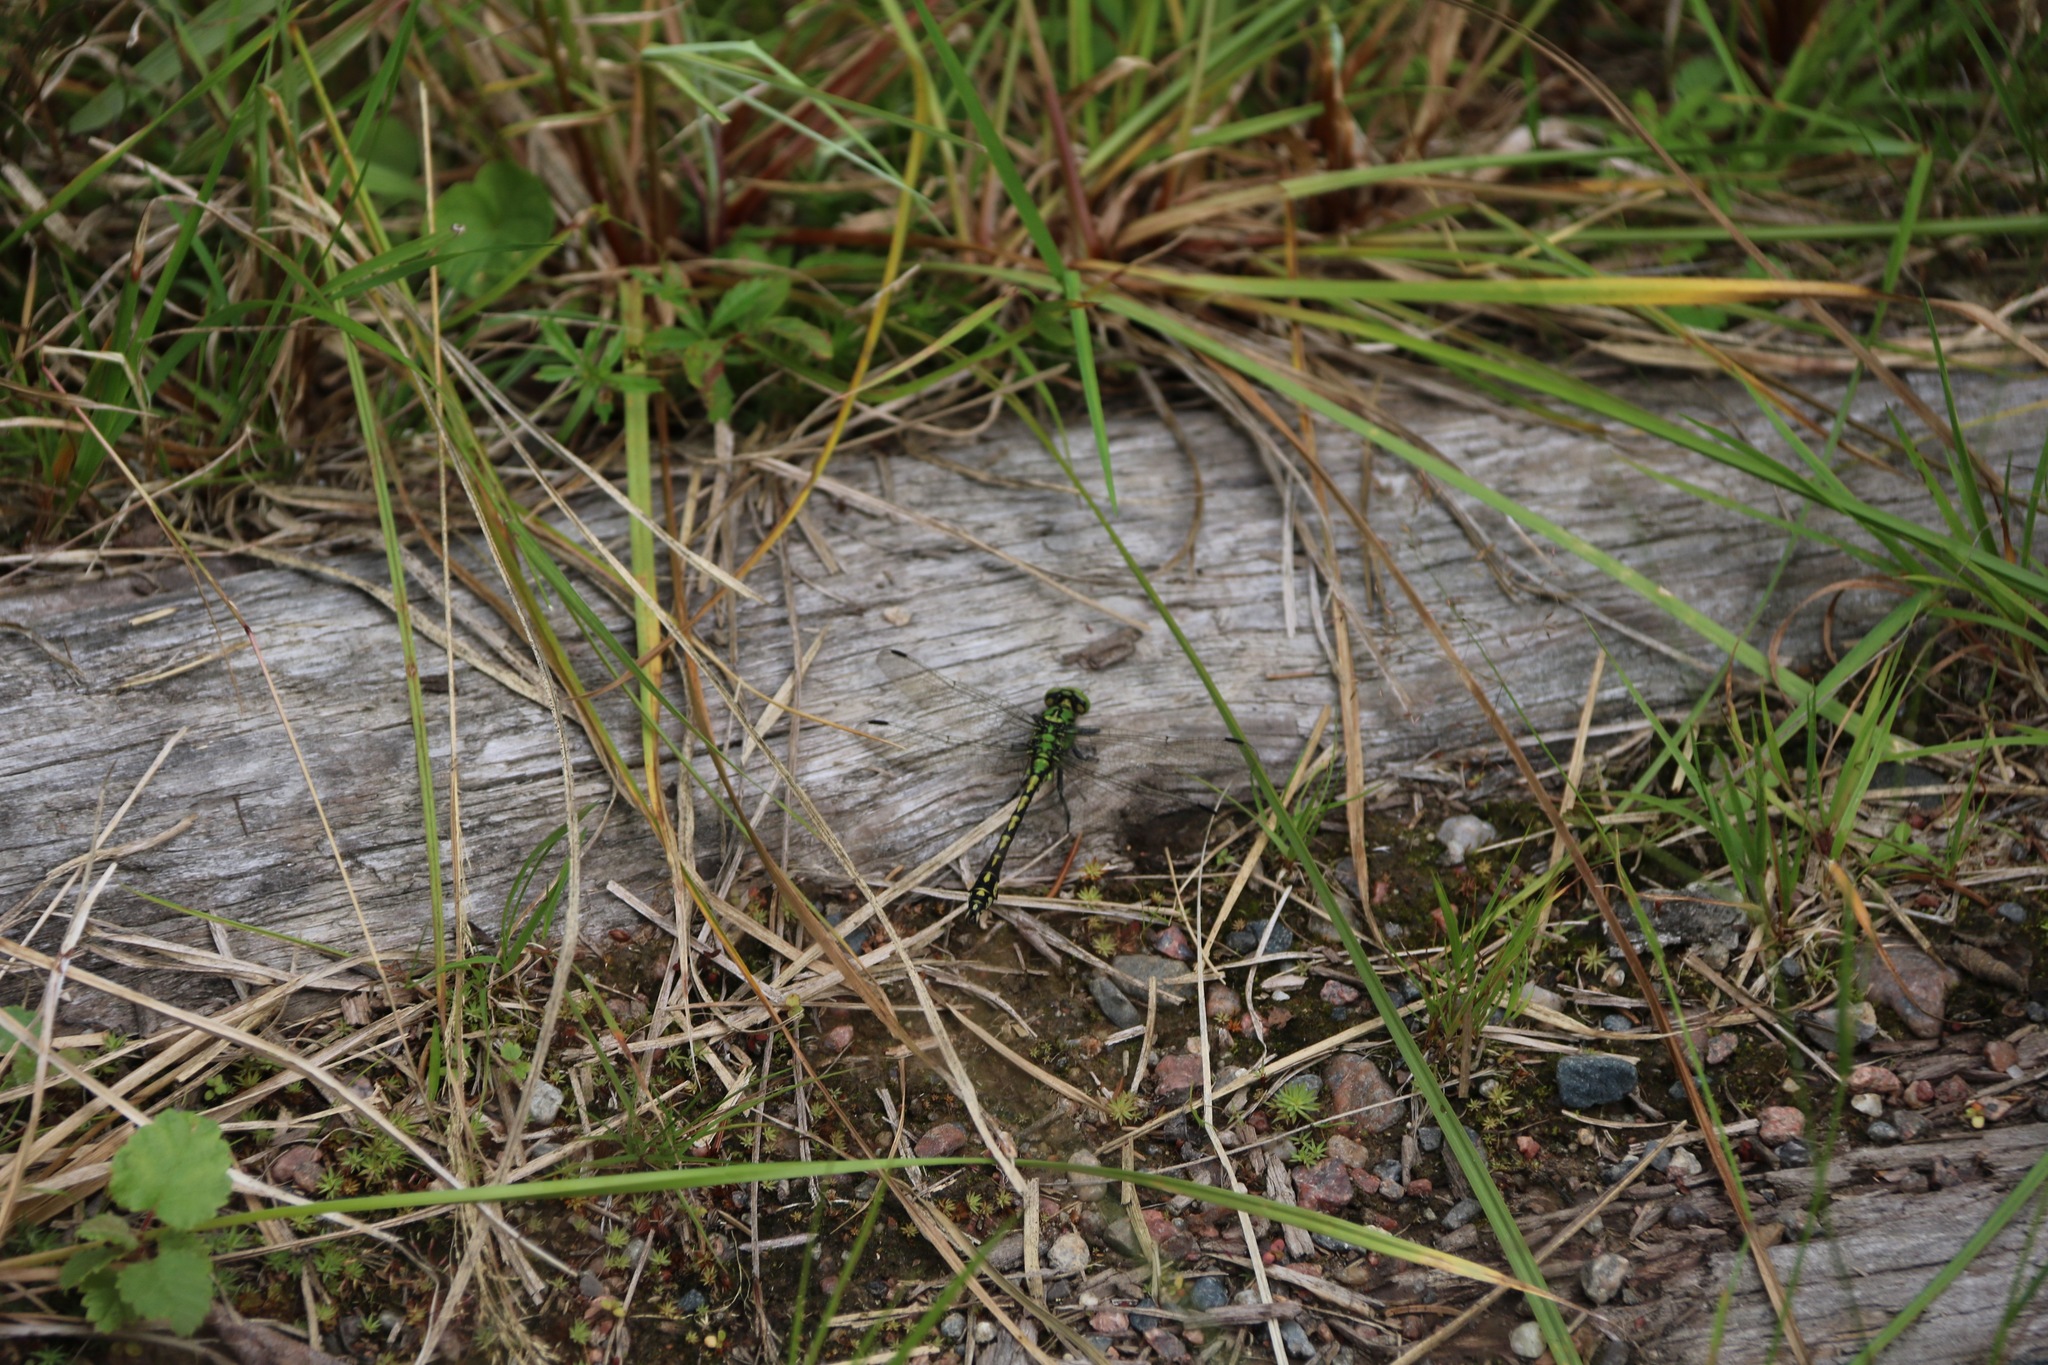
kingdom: Animalia
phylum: Arthropoda
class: Insecta
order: Odonata
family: Gomphidae
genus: Ophiogomphus
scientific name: Ophiogomphus cecilia
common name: Green snaketail
